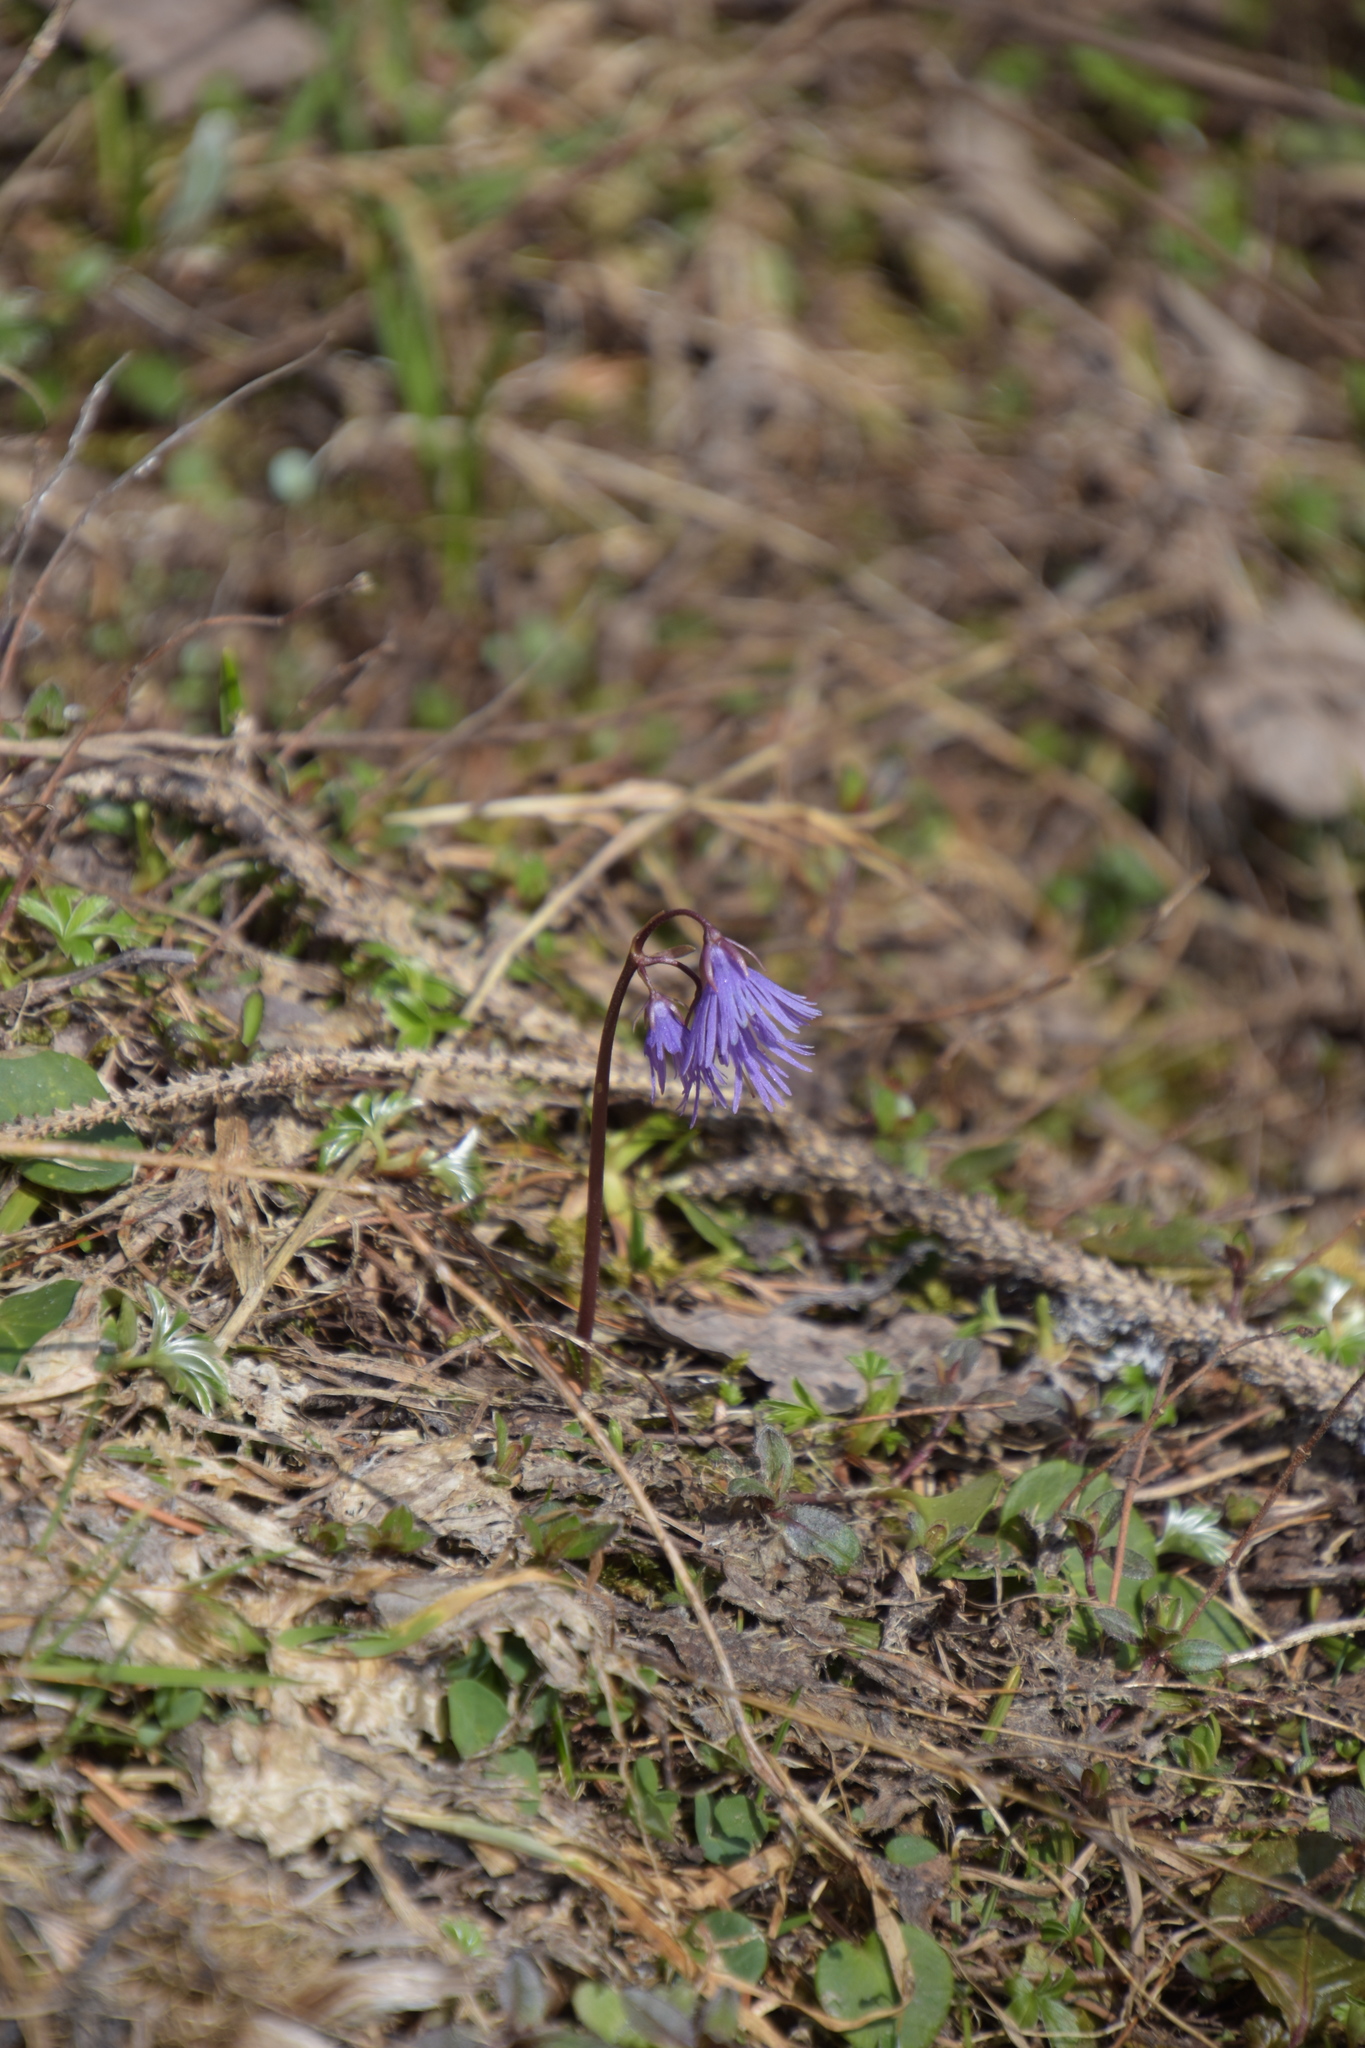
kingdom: Plantae
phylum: Tracheophyta
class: Magnoliopsida
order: Ericales
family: Primulaceae
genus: Soldanella
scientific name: Soldanella alpina
